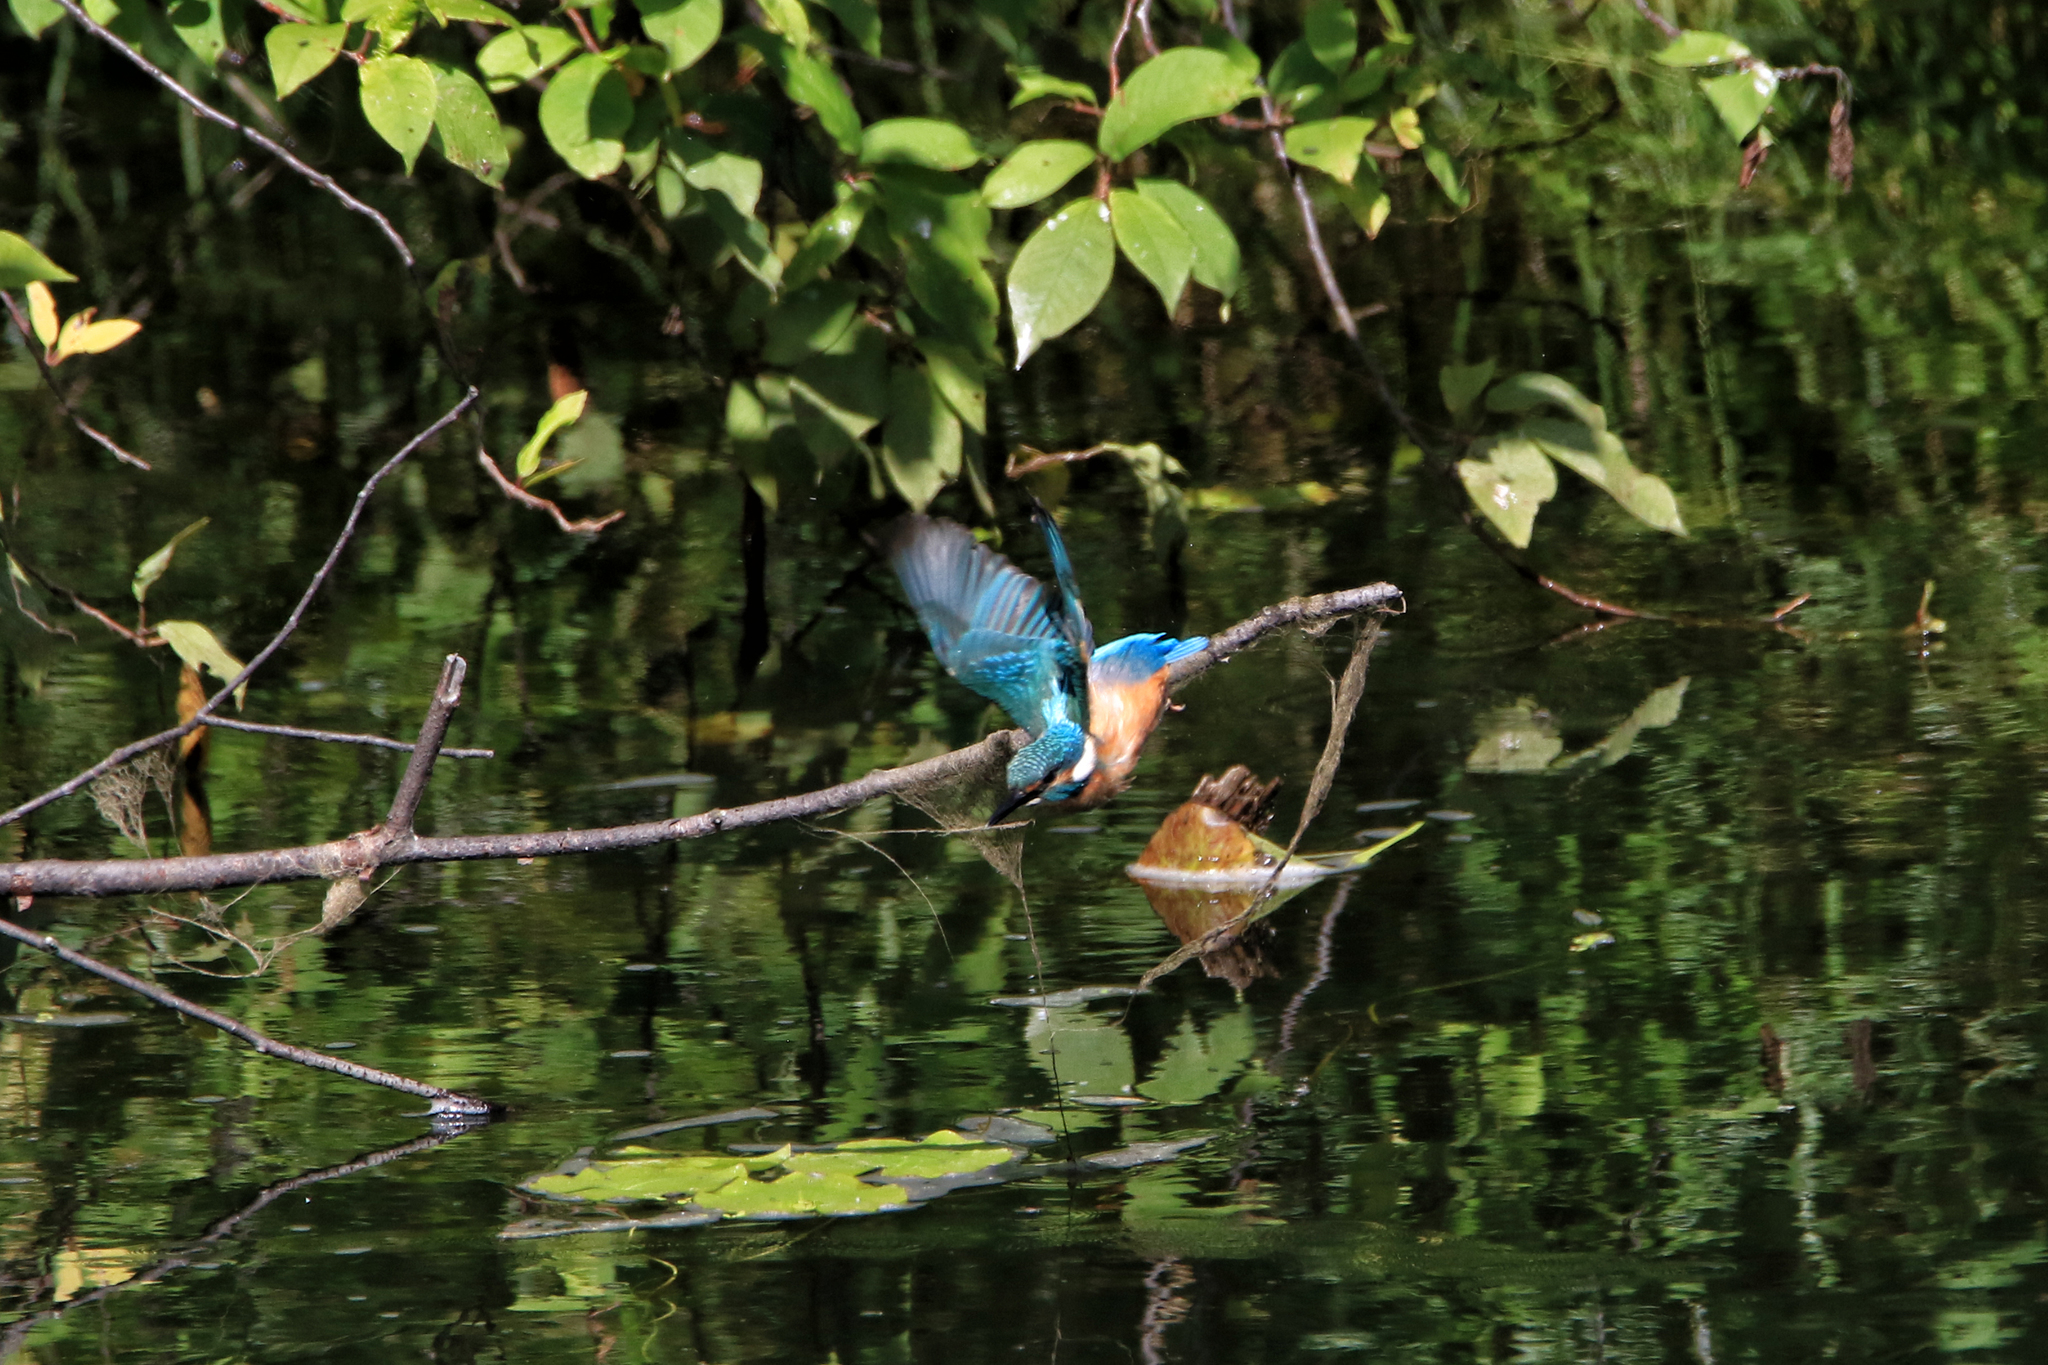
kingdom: Animalia
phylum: Chordata
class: Aves
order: Coraciiformes
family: Alcedinidae
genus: Alcedo
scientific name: Alcedo atthis
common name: Common kingfisher
